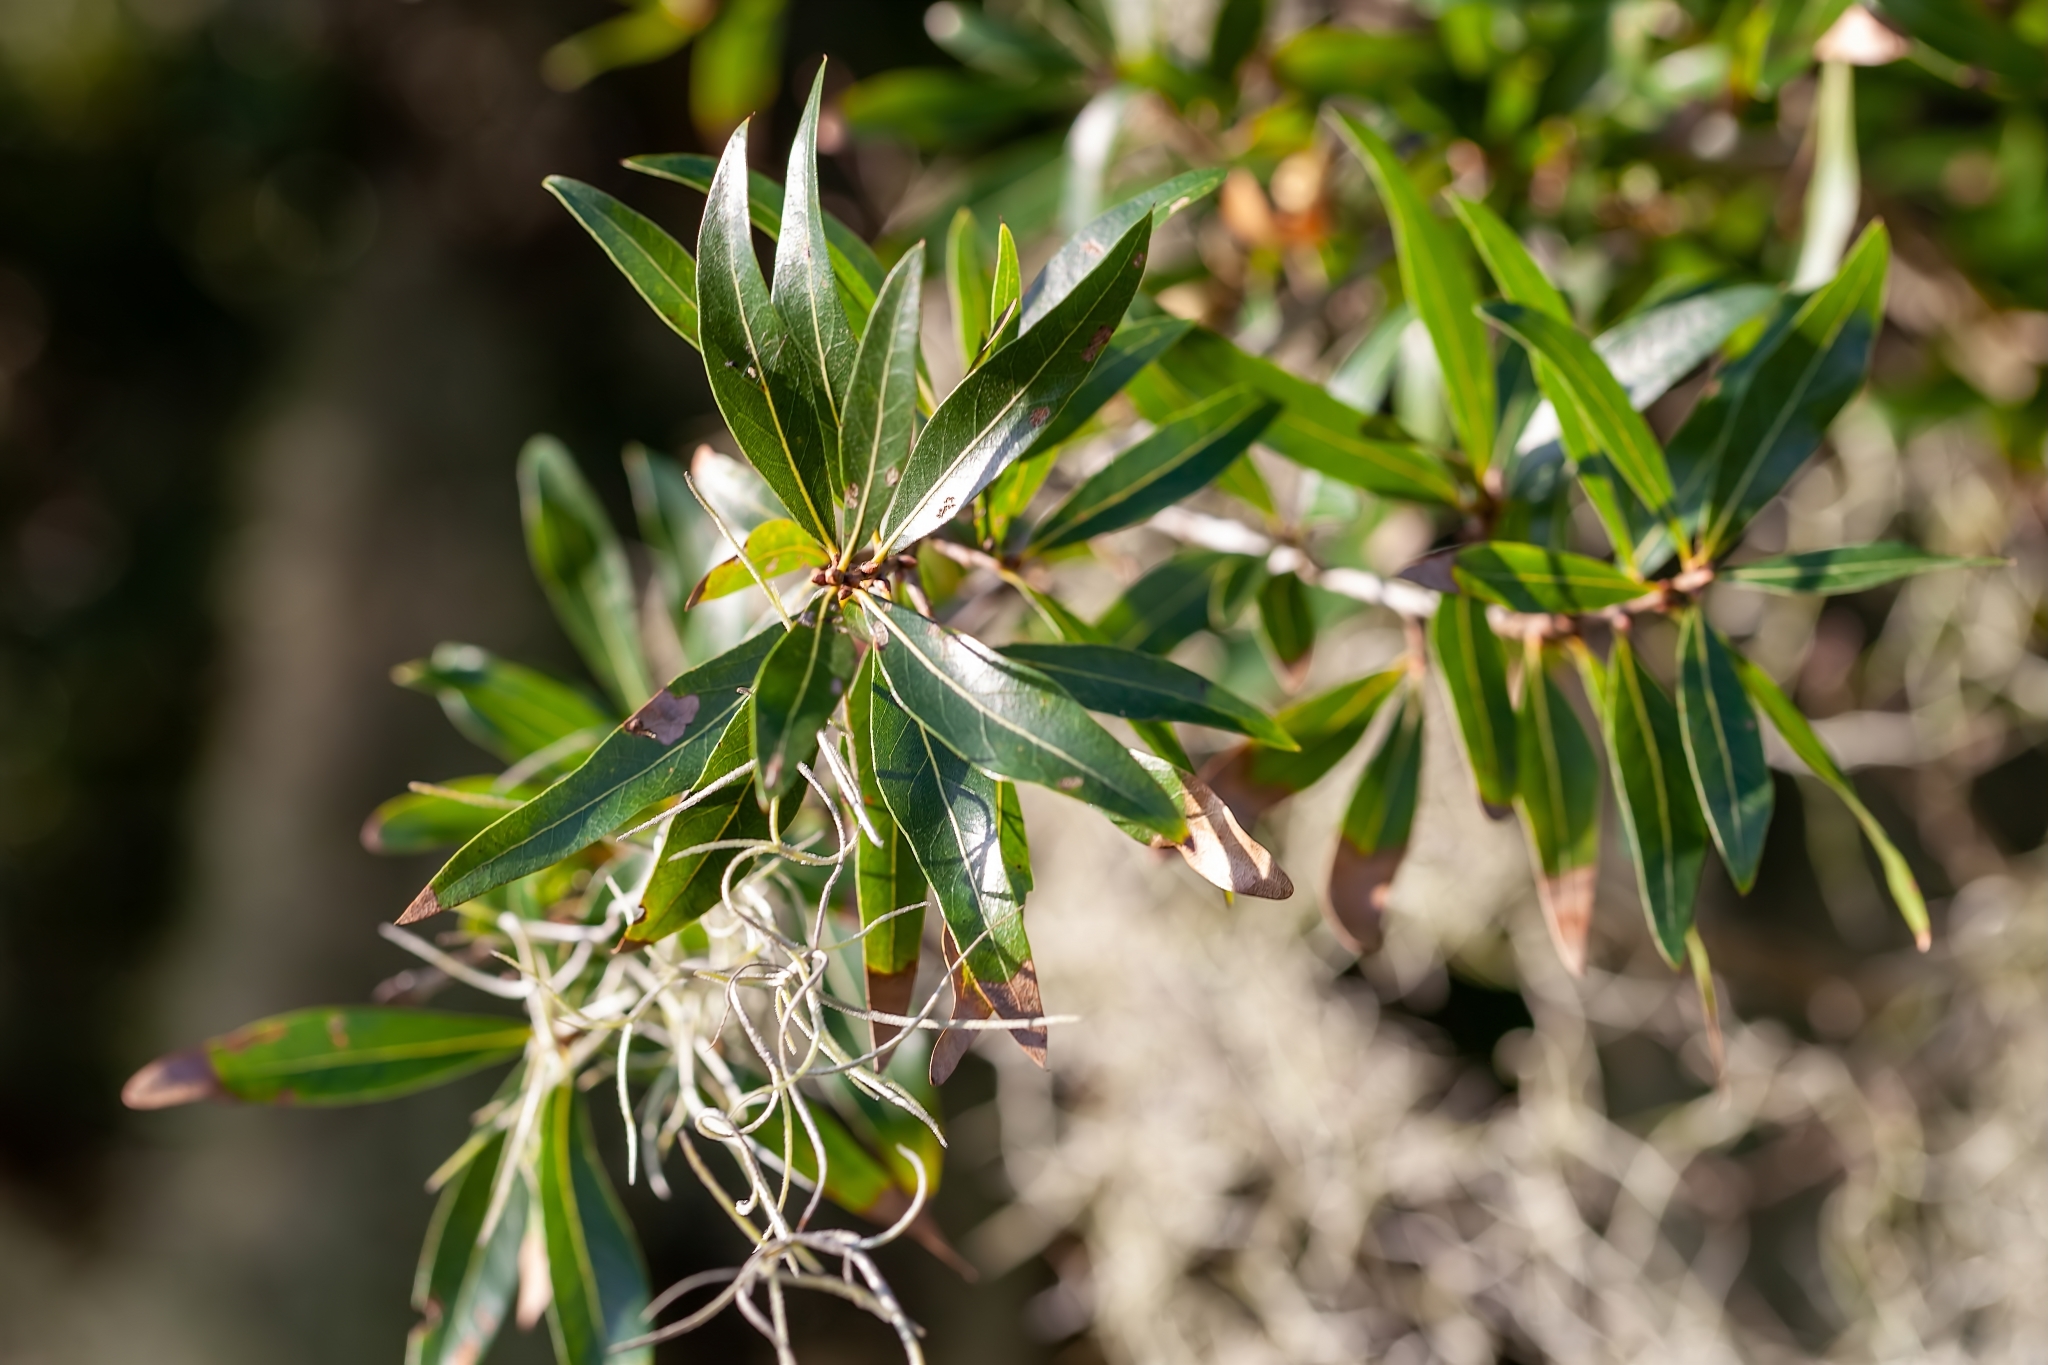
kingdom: Plantae
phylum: Tracheophyta
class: Magnoliopsida
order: Fagales
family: Fagaceae
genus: Quercus
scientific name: Quercus hemisphaerica
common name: Darlington oak
